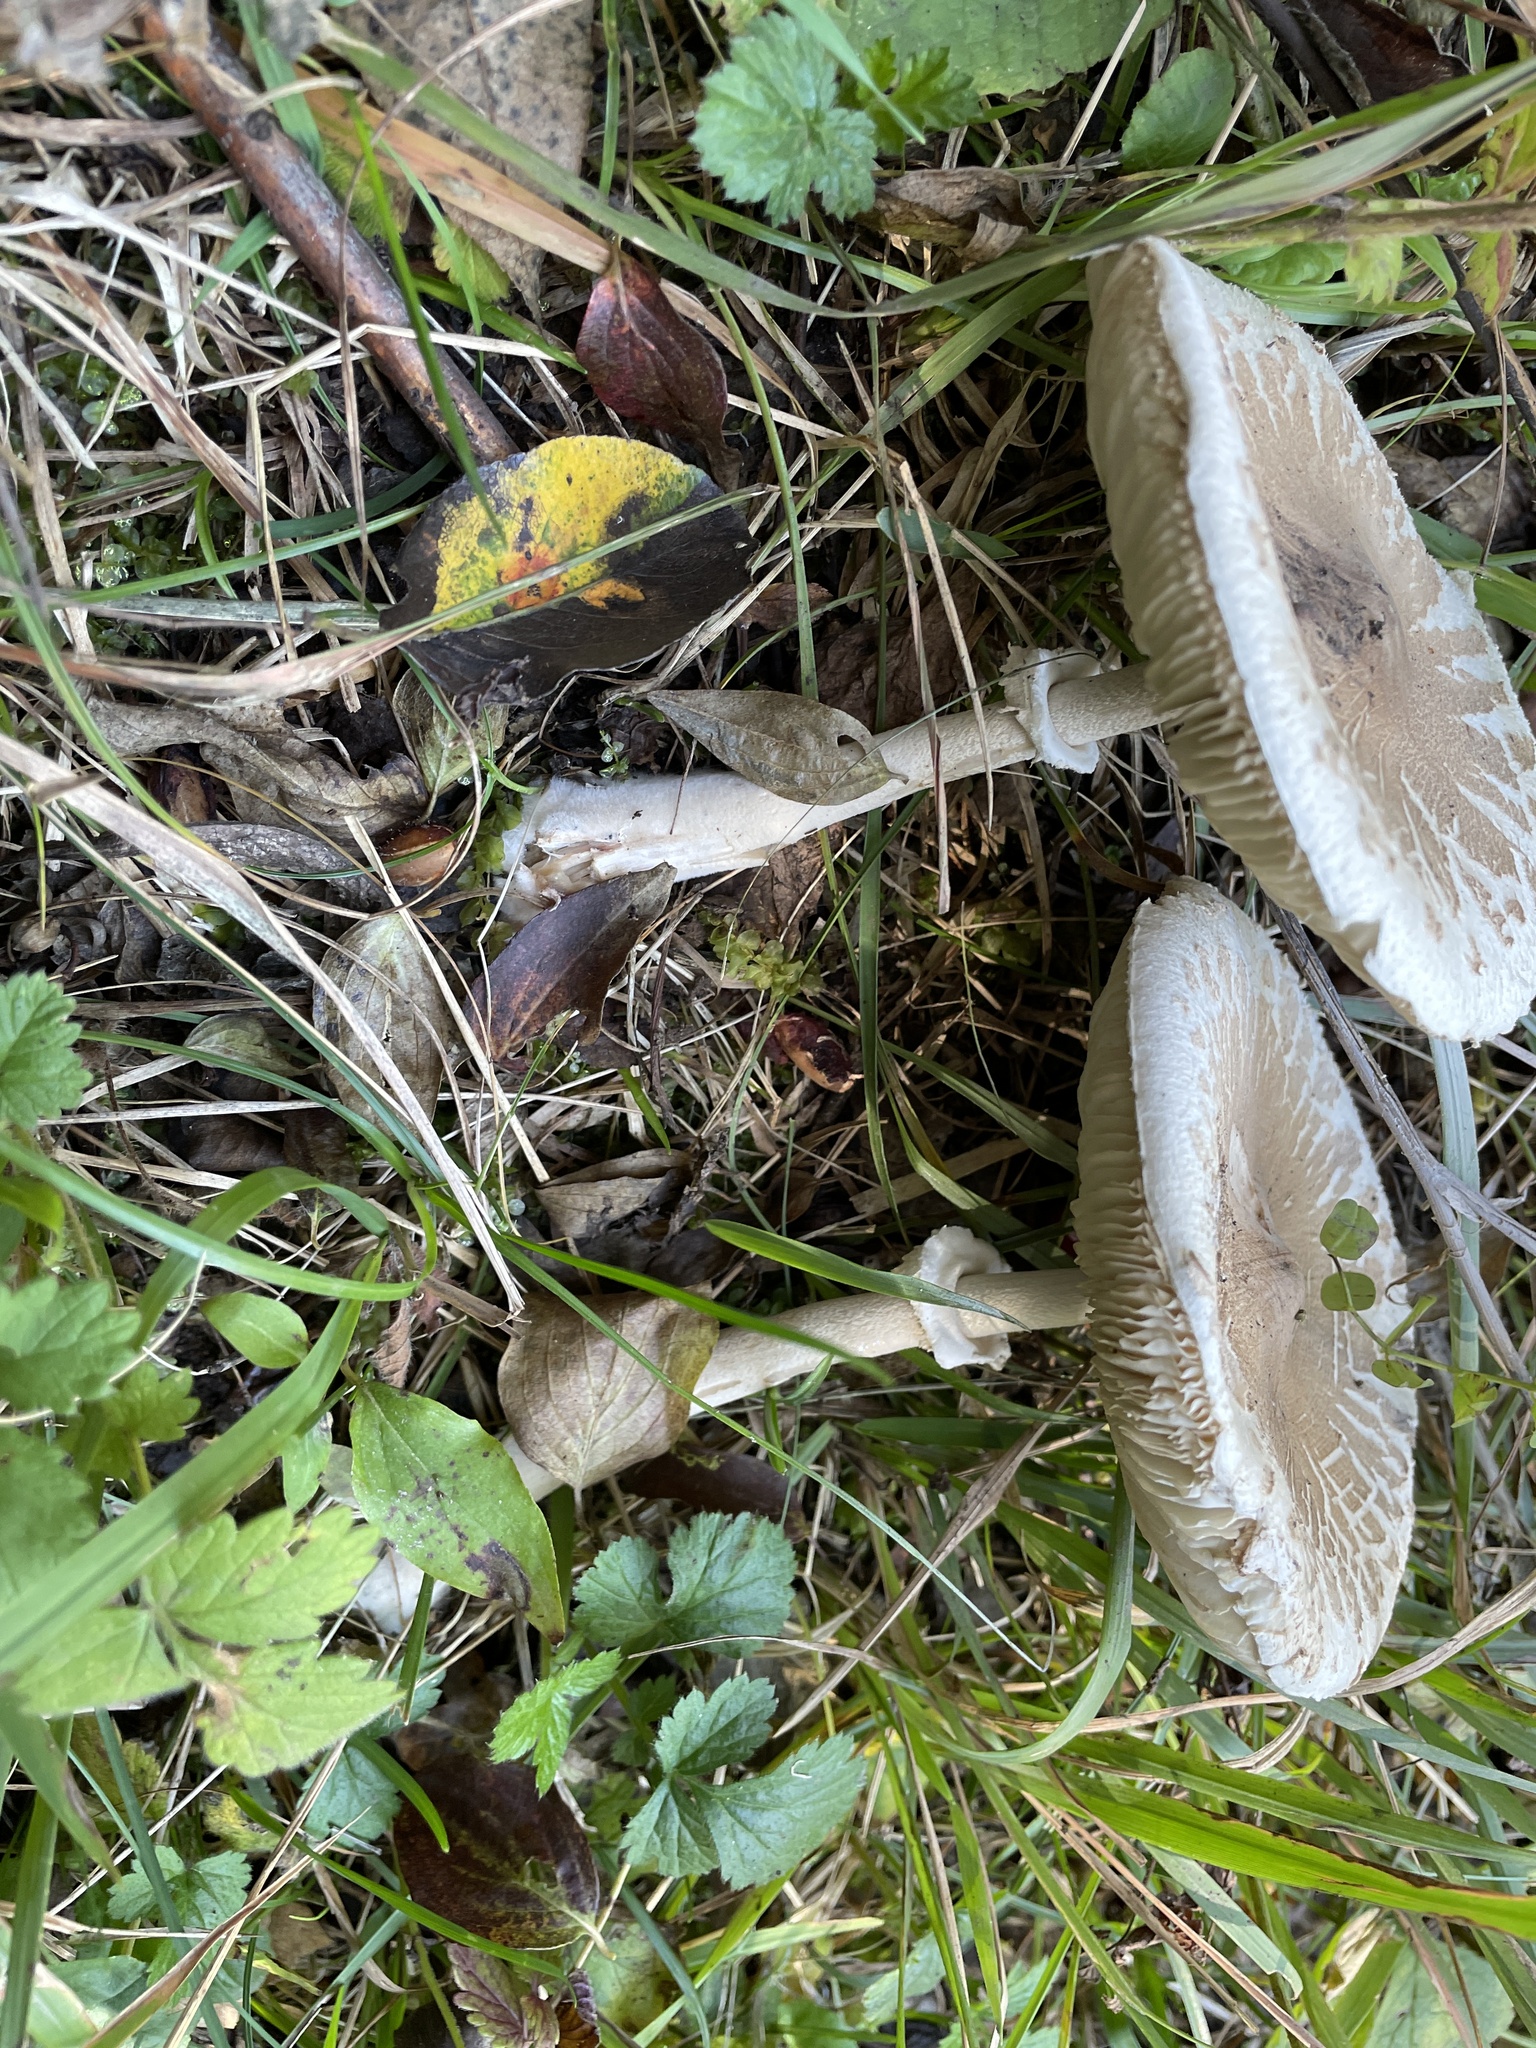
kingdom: Fungi
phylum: Basidiomycota
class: Agaricomycetes
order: Agaricales
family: Agaricaceae
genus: Macrolepiota
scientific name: Macrolepiota mastoidea
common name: Slender parasol
